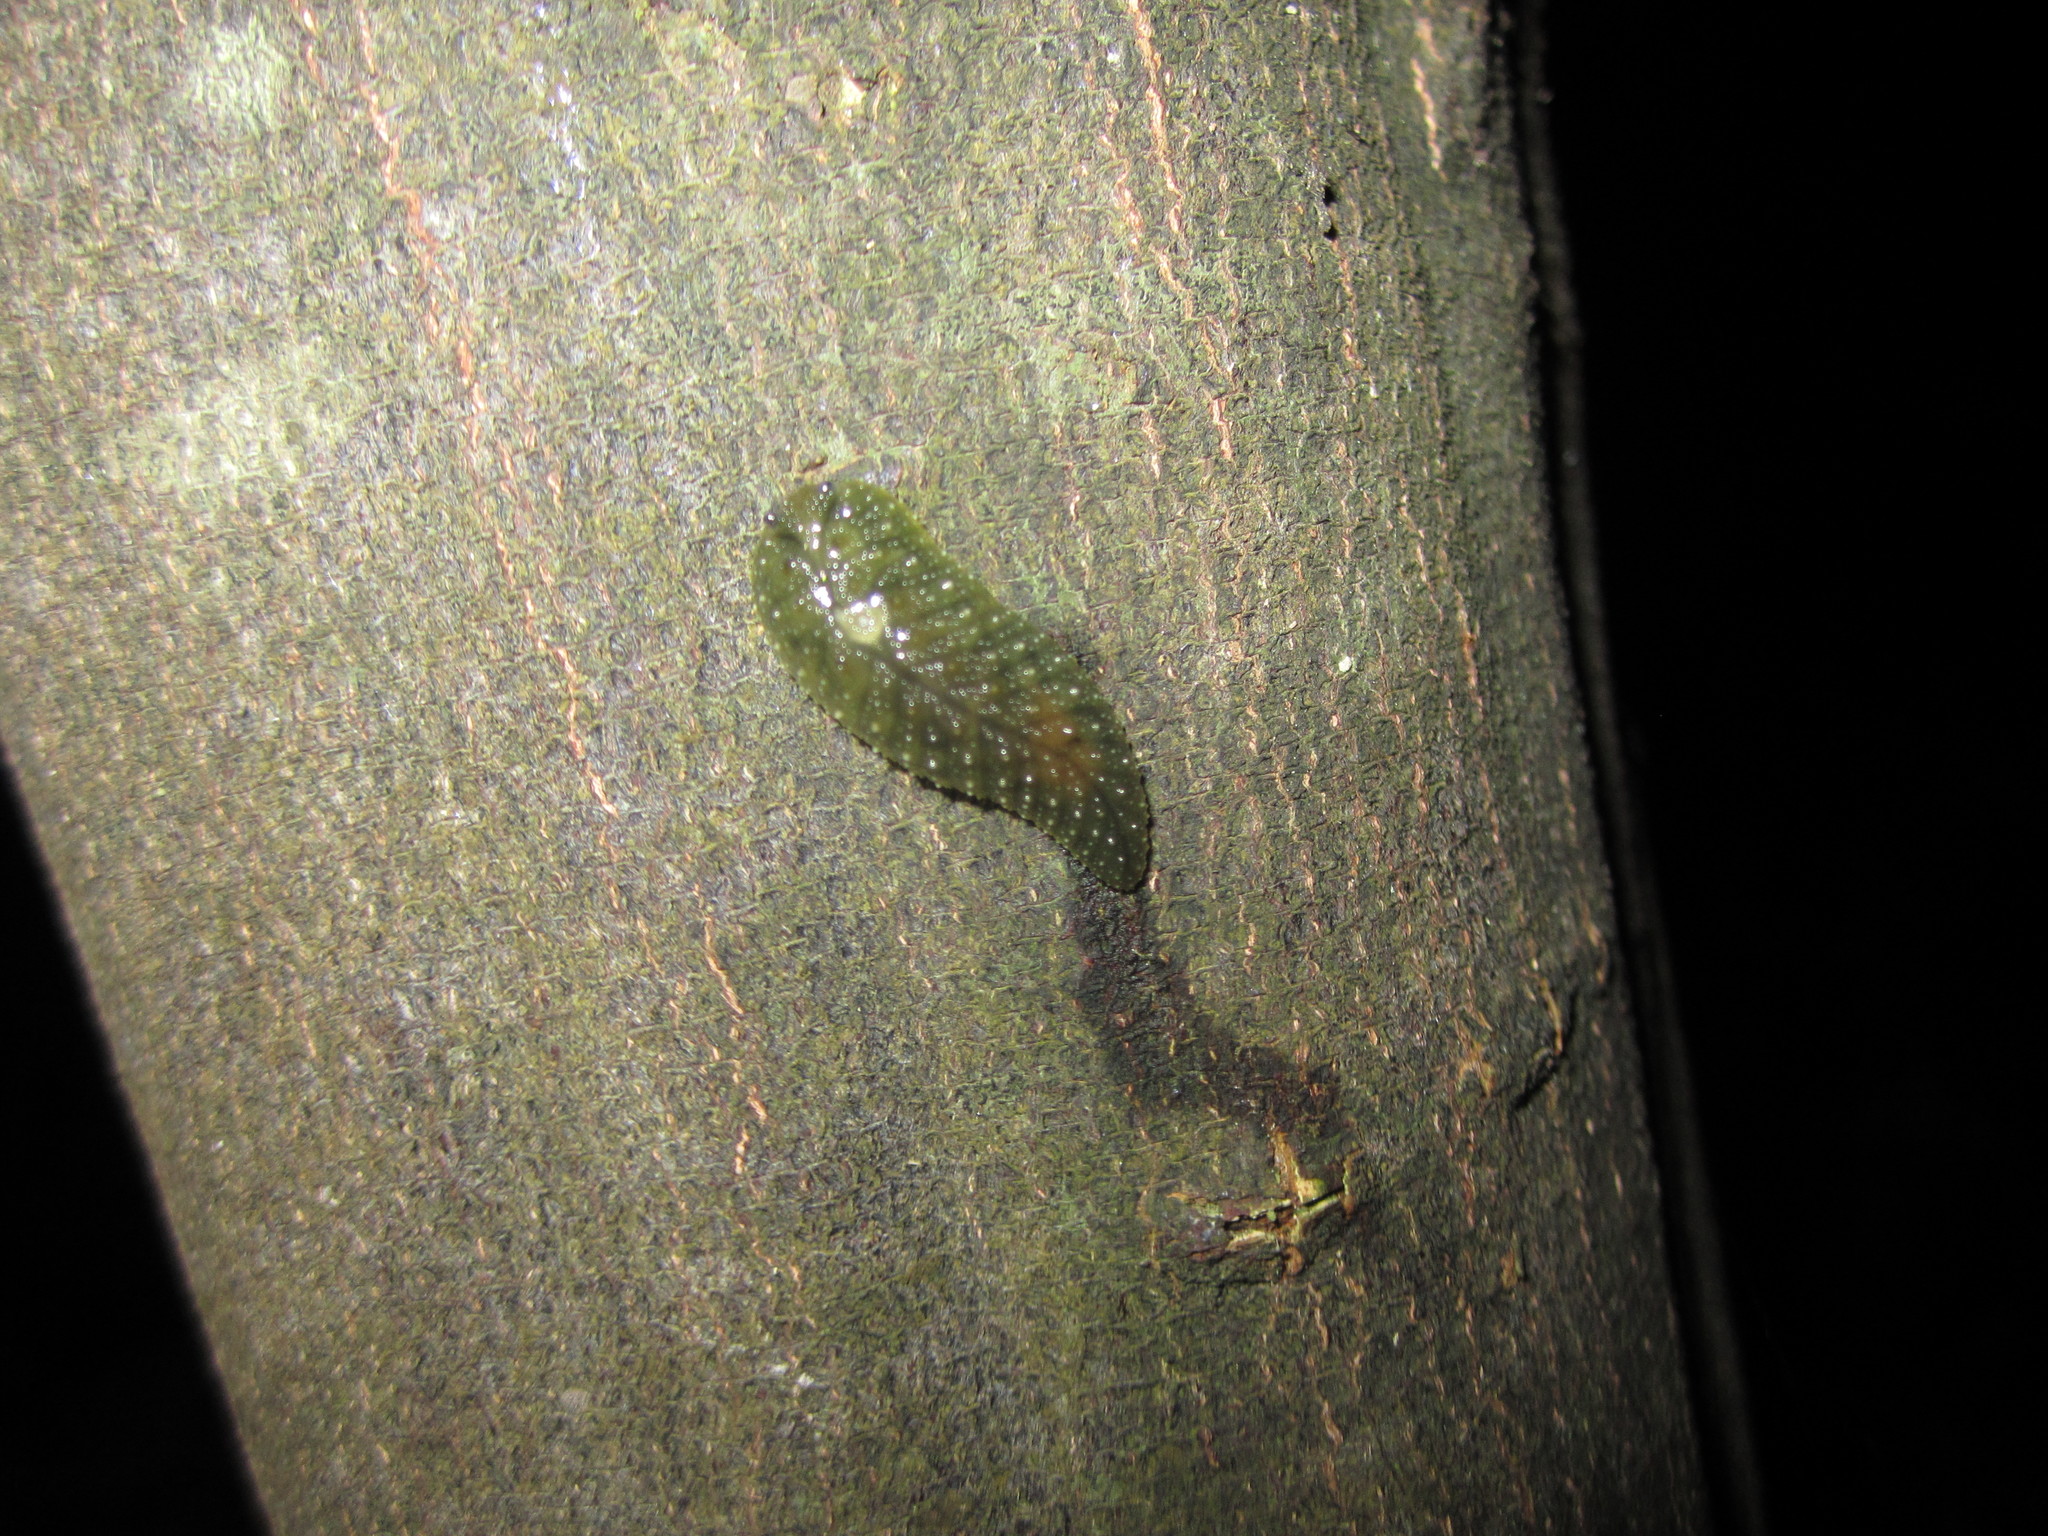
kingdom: Animalia
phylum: Mollusca
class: Gastropoda
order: Stylommatophora
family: Athoracophoridae
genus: Athoracophorus
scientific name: Athoracophorus papillatus
